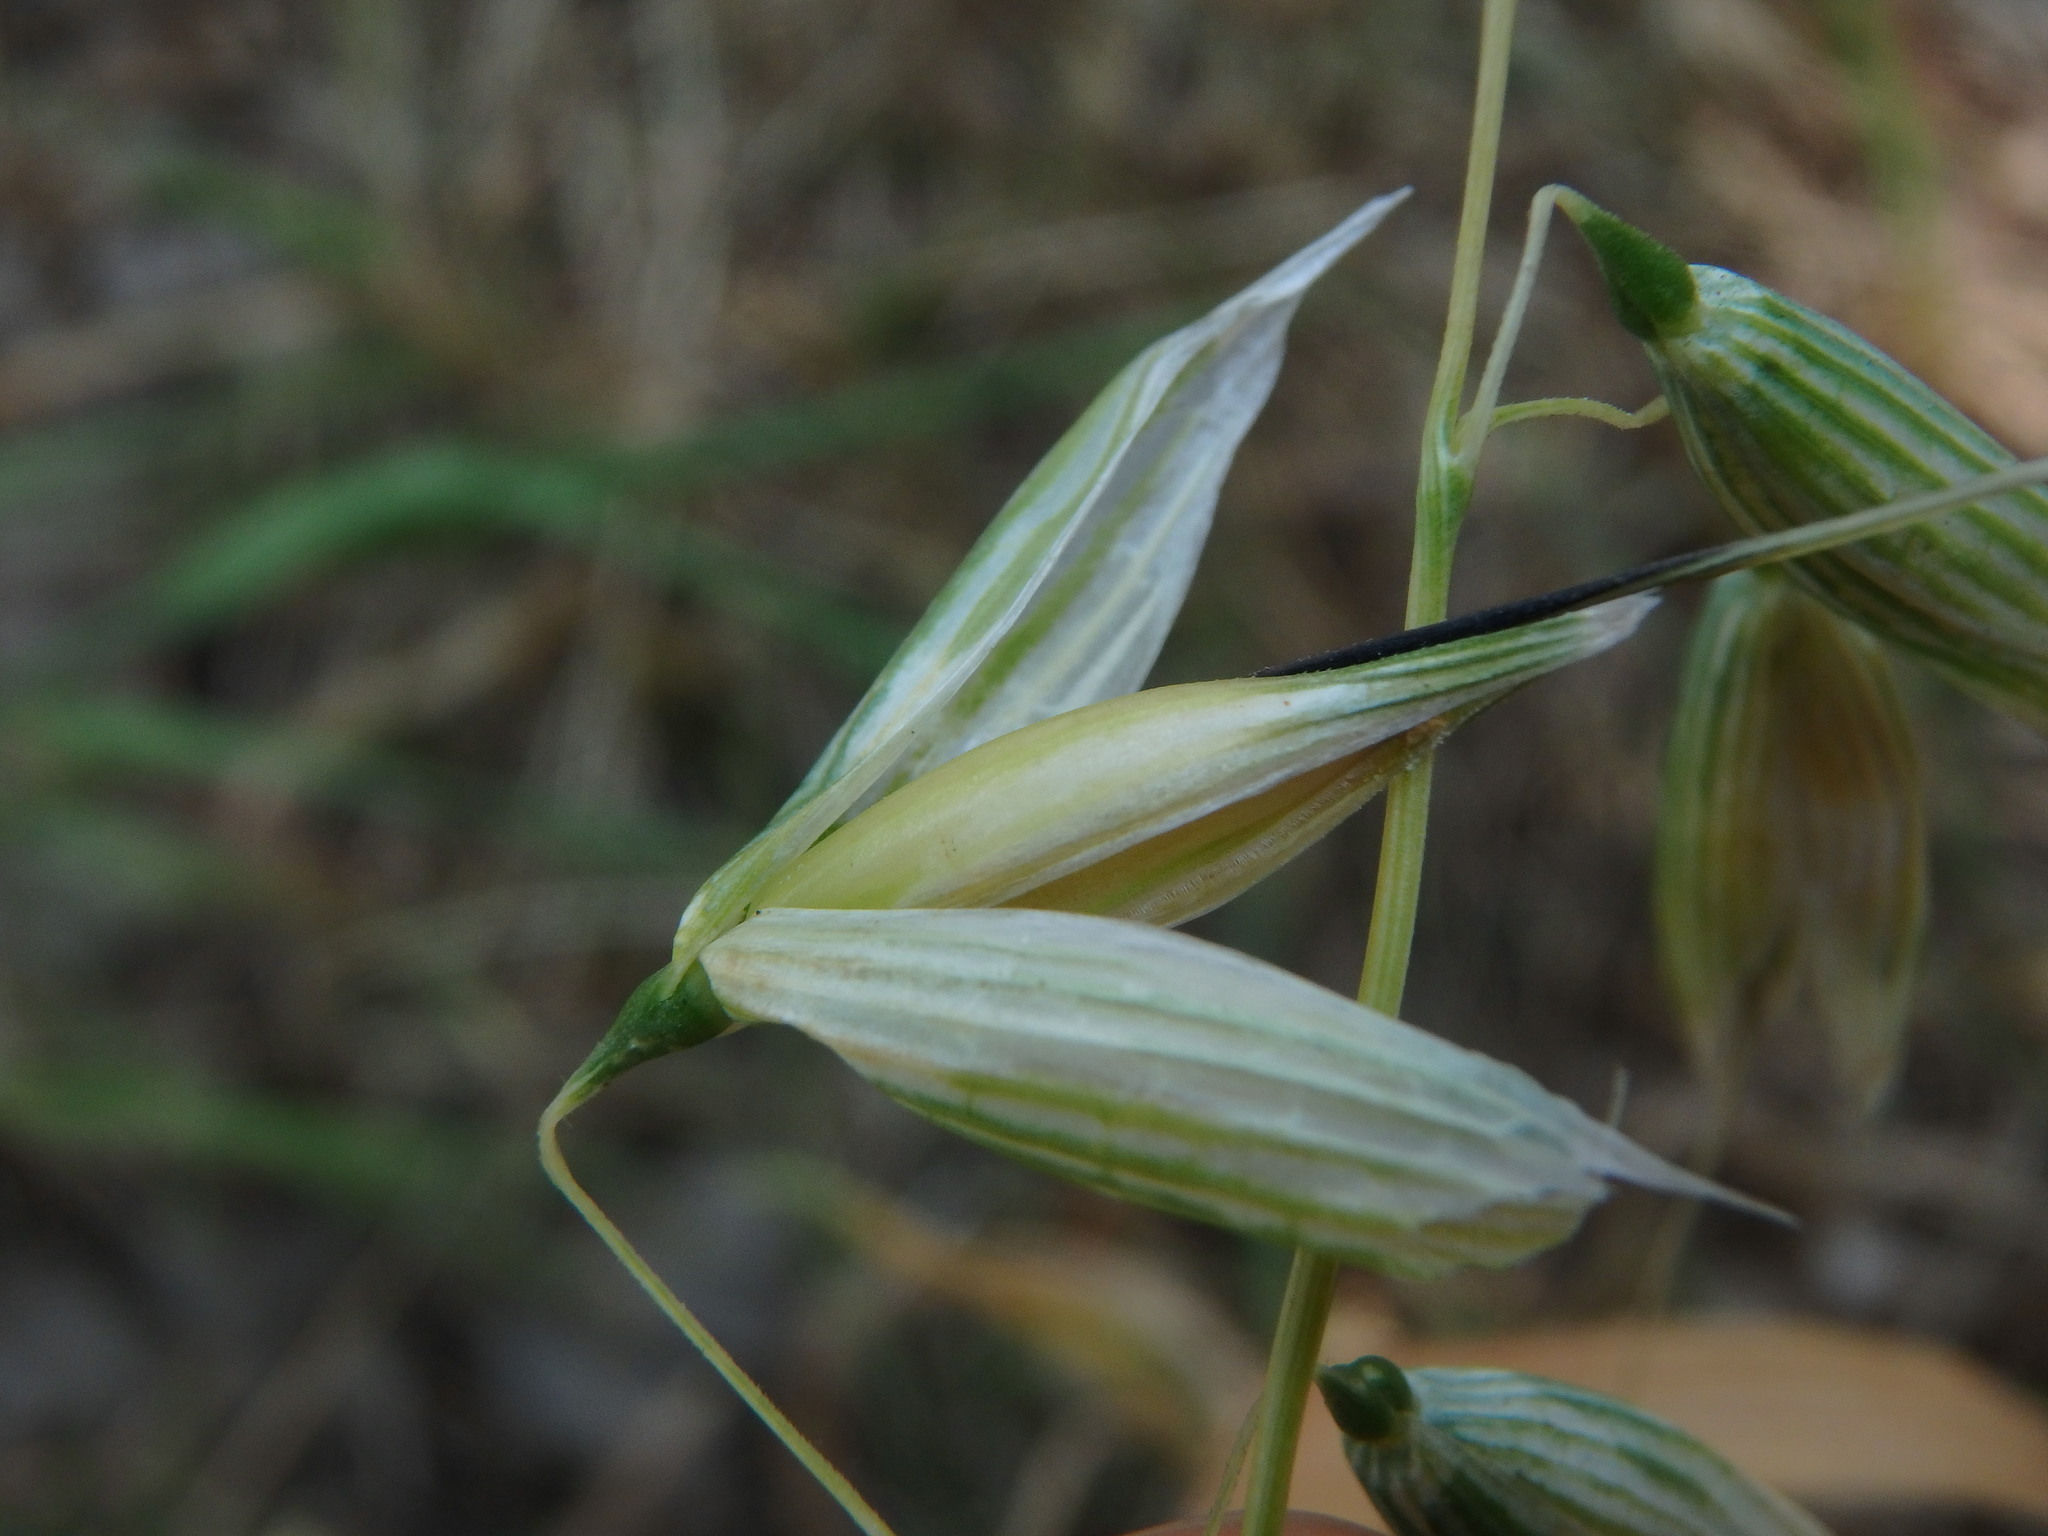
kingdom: Plantae
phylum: Tracheophyta
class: Liliopsida
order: Poales
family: Poaceae
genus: Avena
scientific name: Avena sativa
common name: Oat
